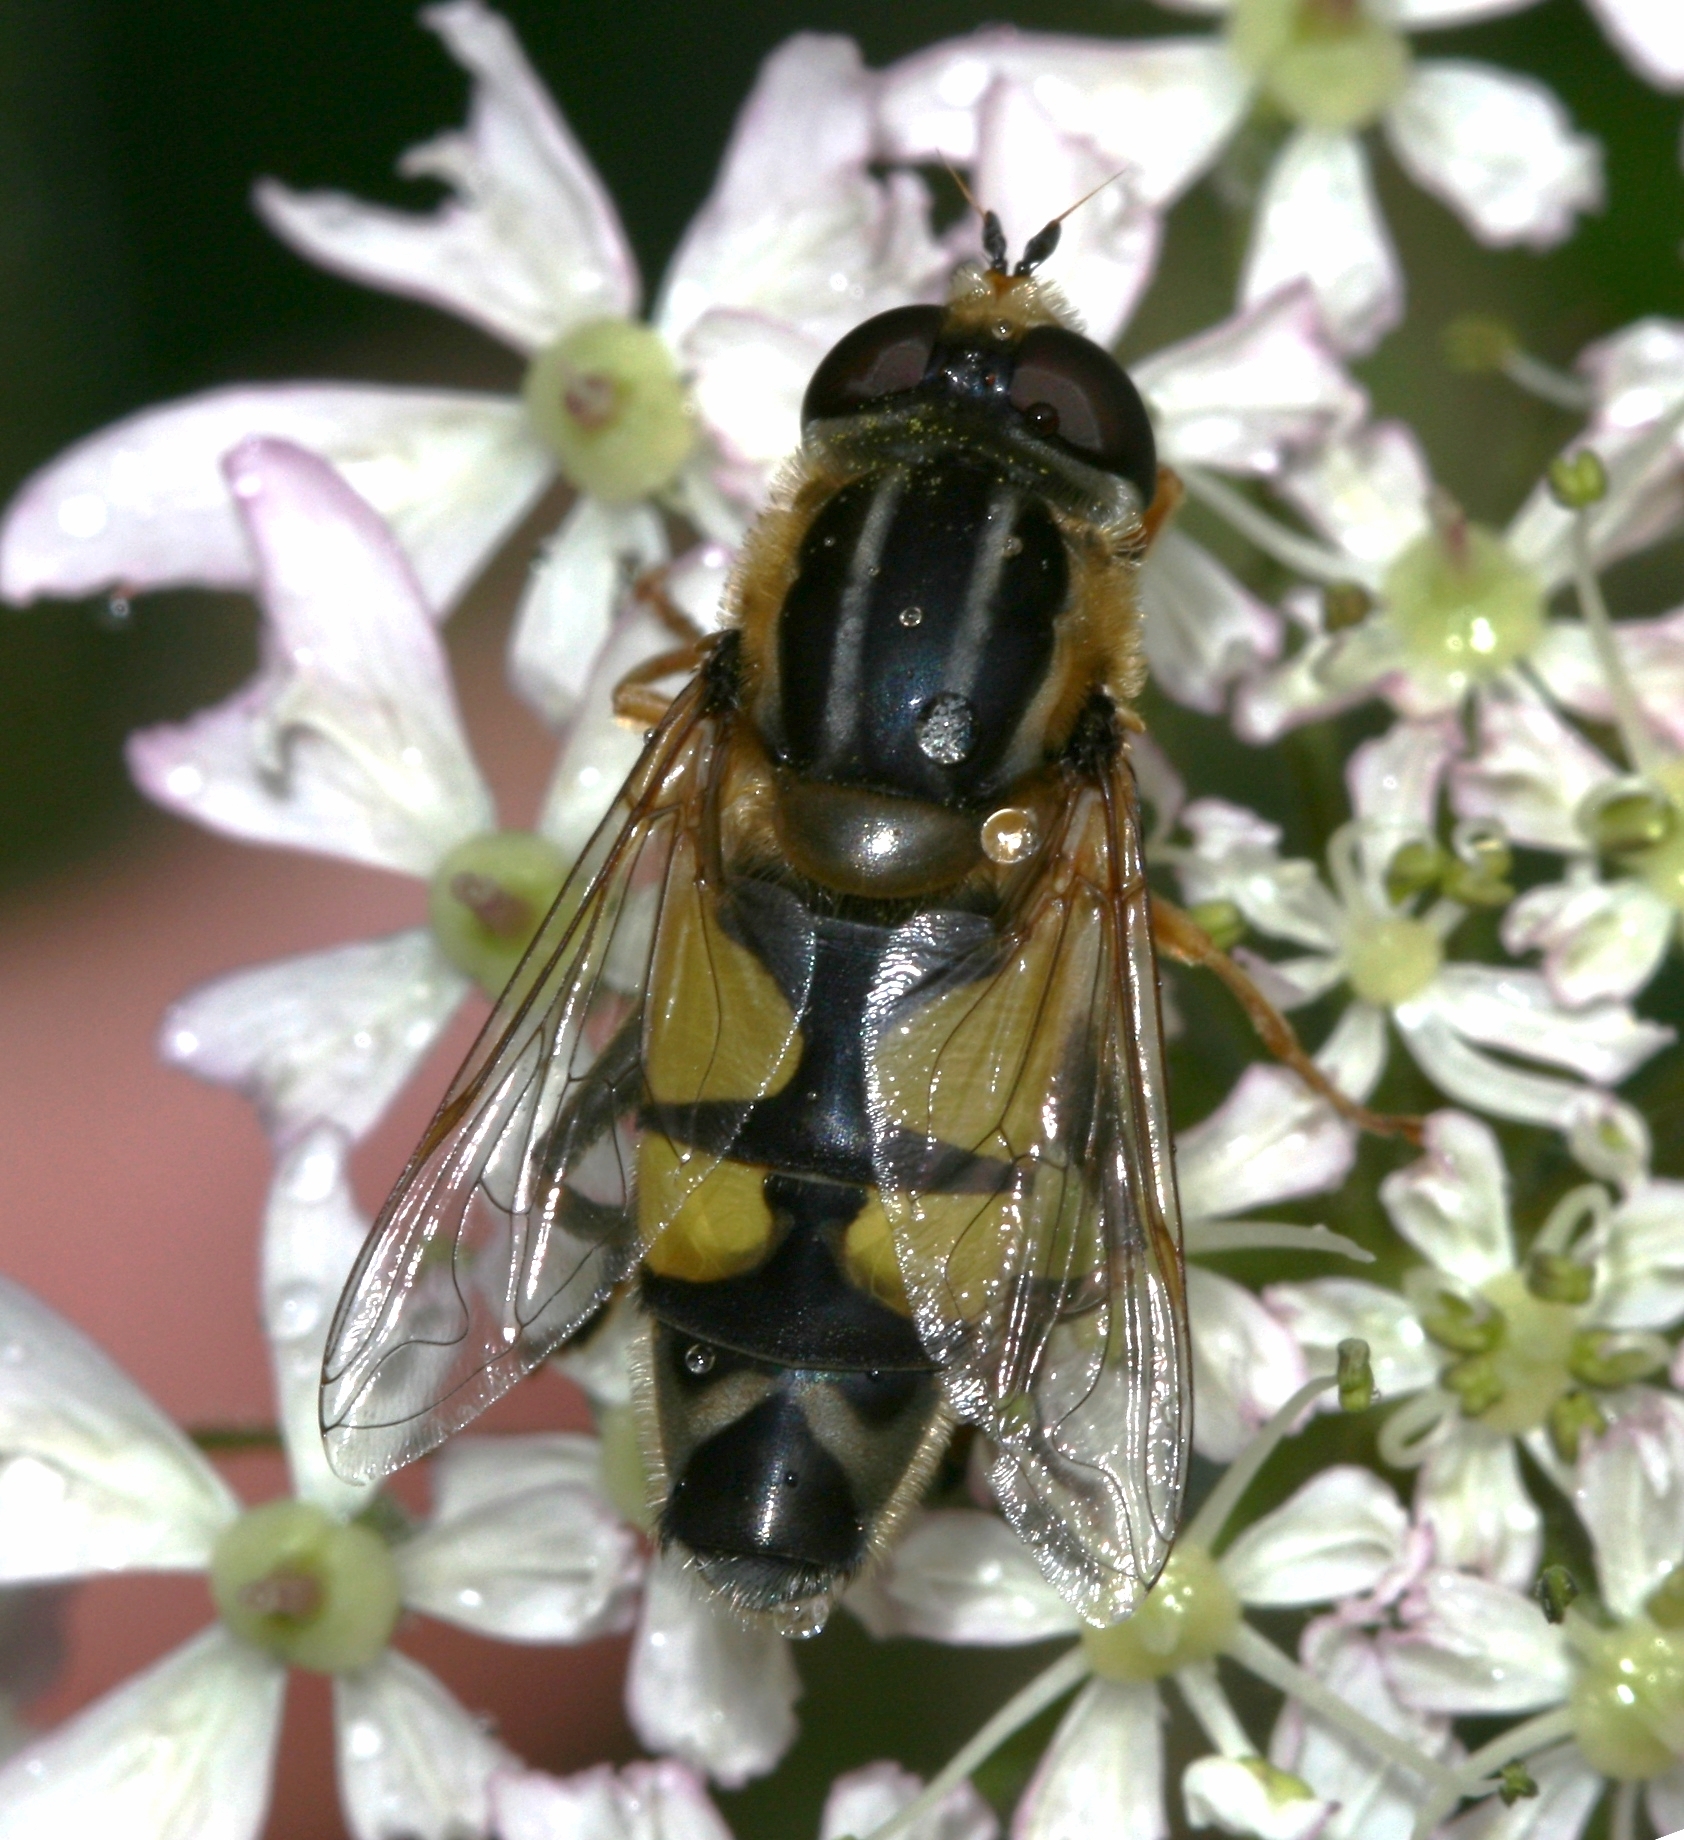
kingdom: Animalia
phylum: Arthropoda
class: Insecta
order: Diptera
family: Syrphidae
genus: Helophilus
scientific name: Helophilus trivittatus
